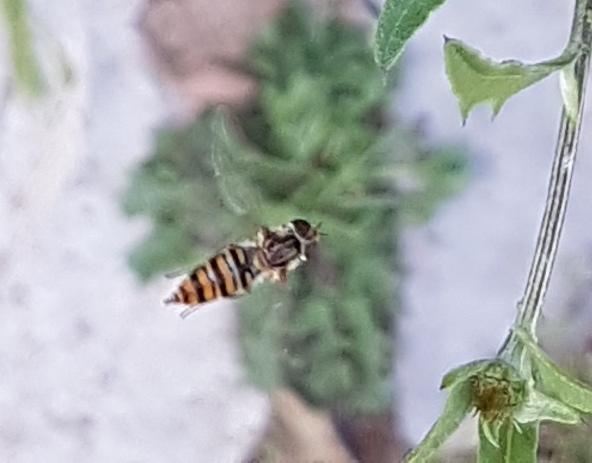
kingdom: Animalia
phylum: Arthropoda
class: Insecta
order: Diptera
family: Syrphidae
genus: Episyrphus
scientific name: Episyrphus balteatus
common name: Marmalade hoverfly
